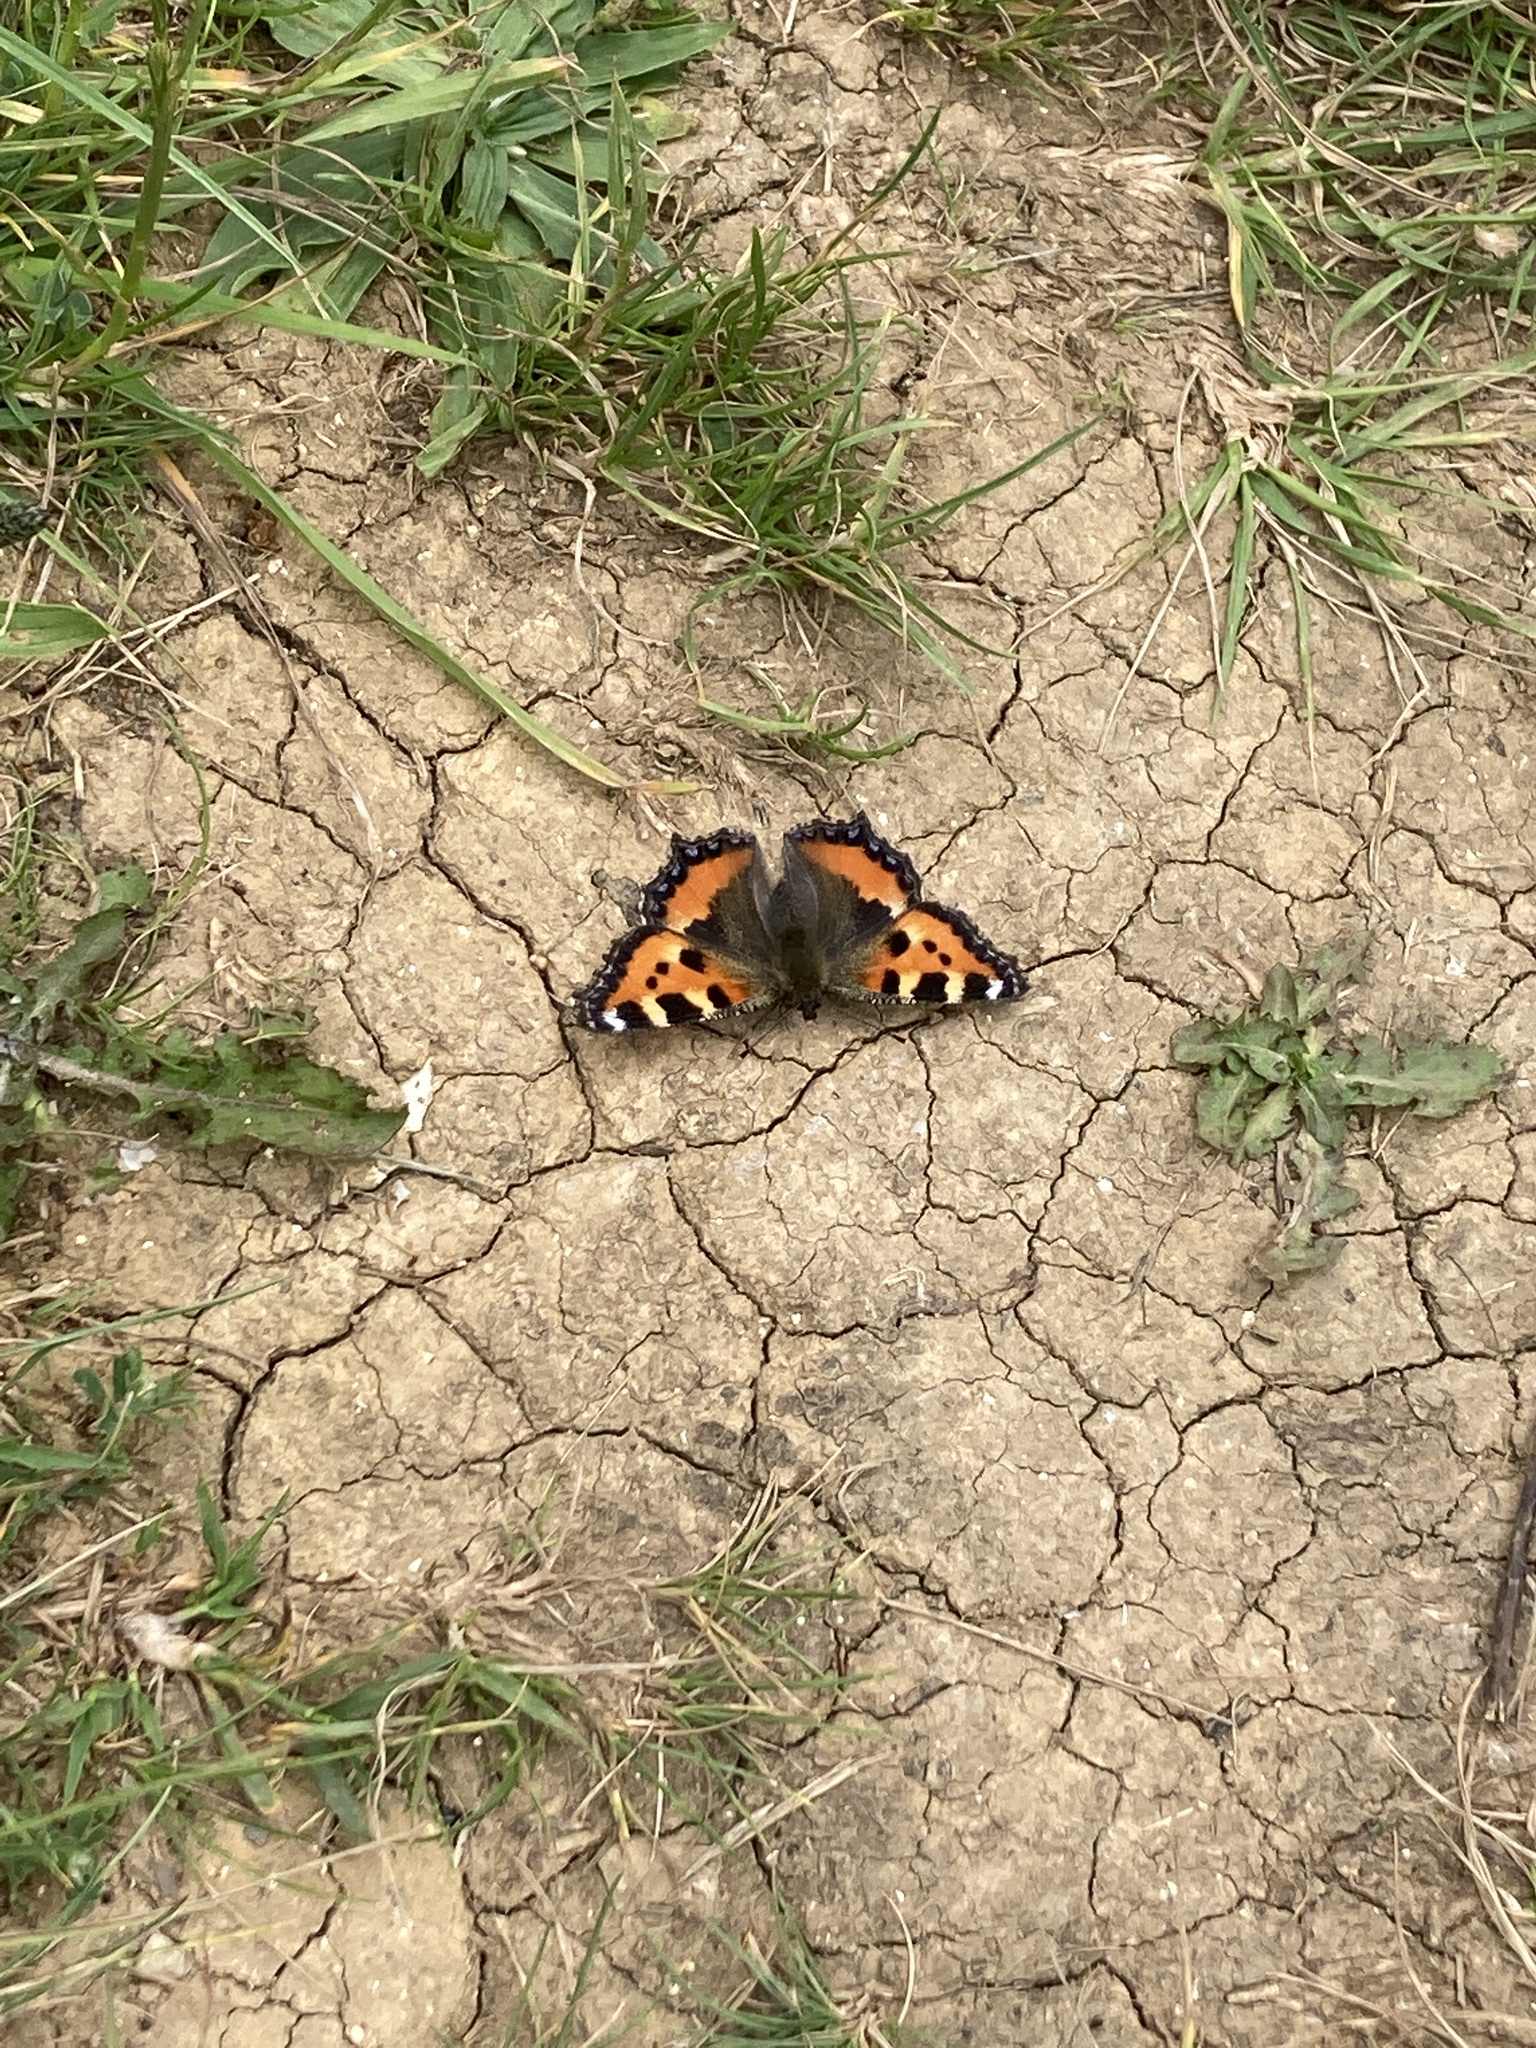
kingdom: Animalia
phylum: Arthropoda
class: Insecta
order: Lepidoptera
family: Nymphalidae
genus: Aglais
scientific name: Aglais urticae
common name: Small tortoiseshell
